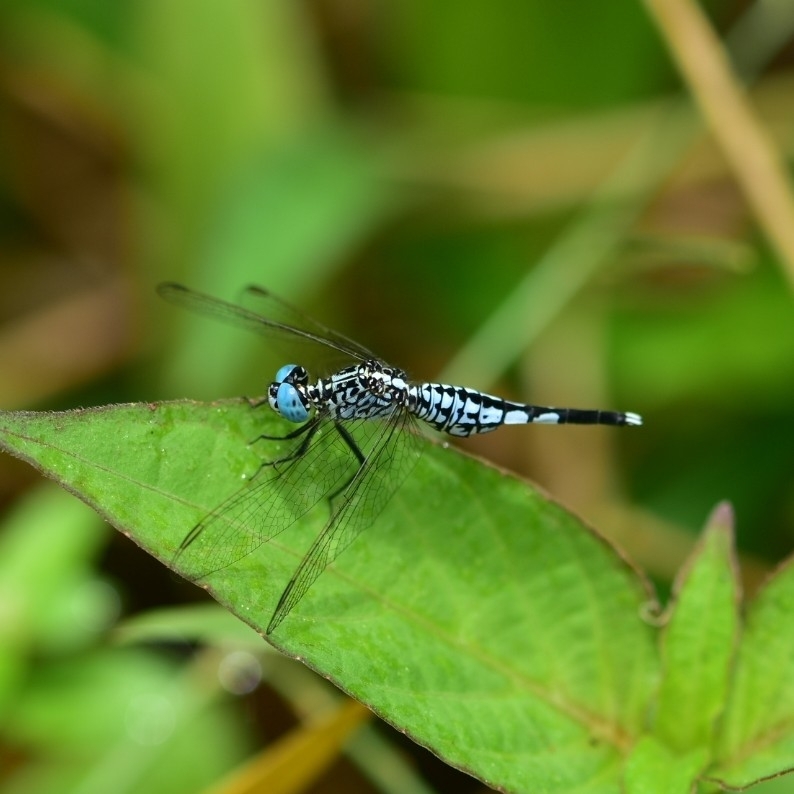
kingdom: Animalia
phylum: Arthropoda
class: Insecta
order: Odonata
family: Libellulidae
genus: Acisoma
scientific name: Acisoma panorpoides
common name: Asian pintail
